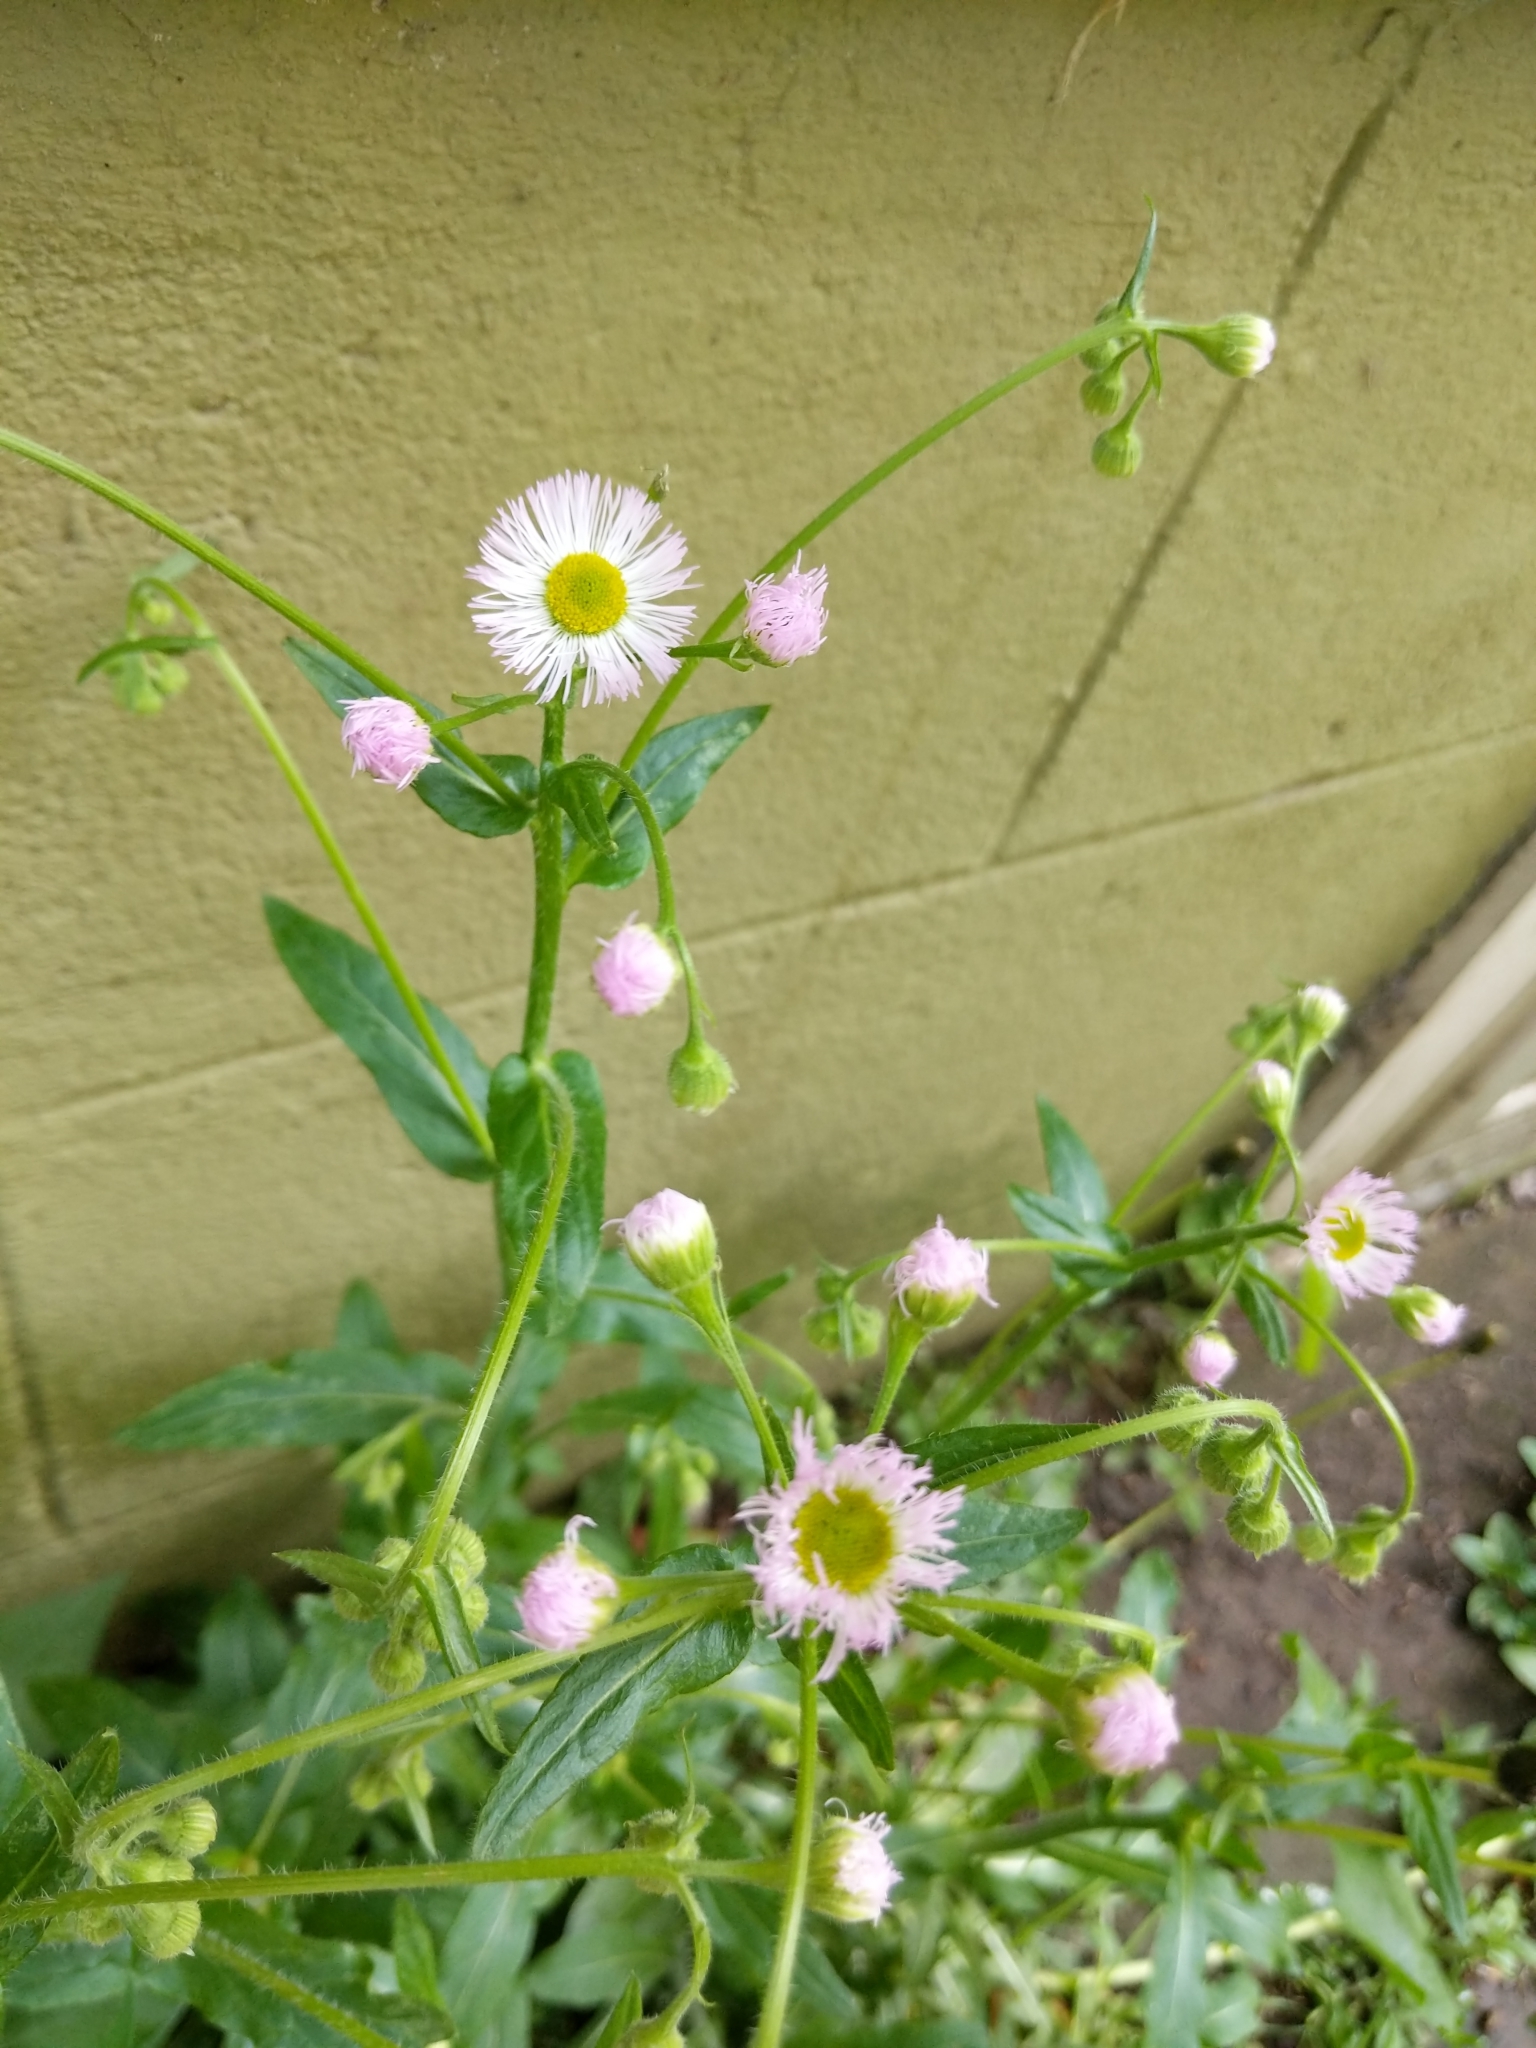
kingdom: Plantae
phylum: Tracheophyta
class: Magnoliopsida
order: Asterales
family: Asteraceae
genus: Erigeron
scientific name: Erigeron philadelphicus
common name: Robin's-plantain
